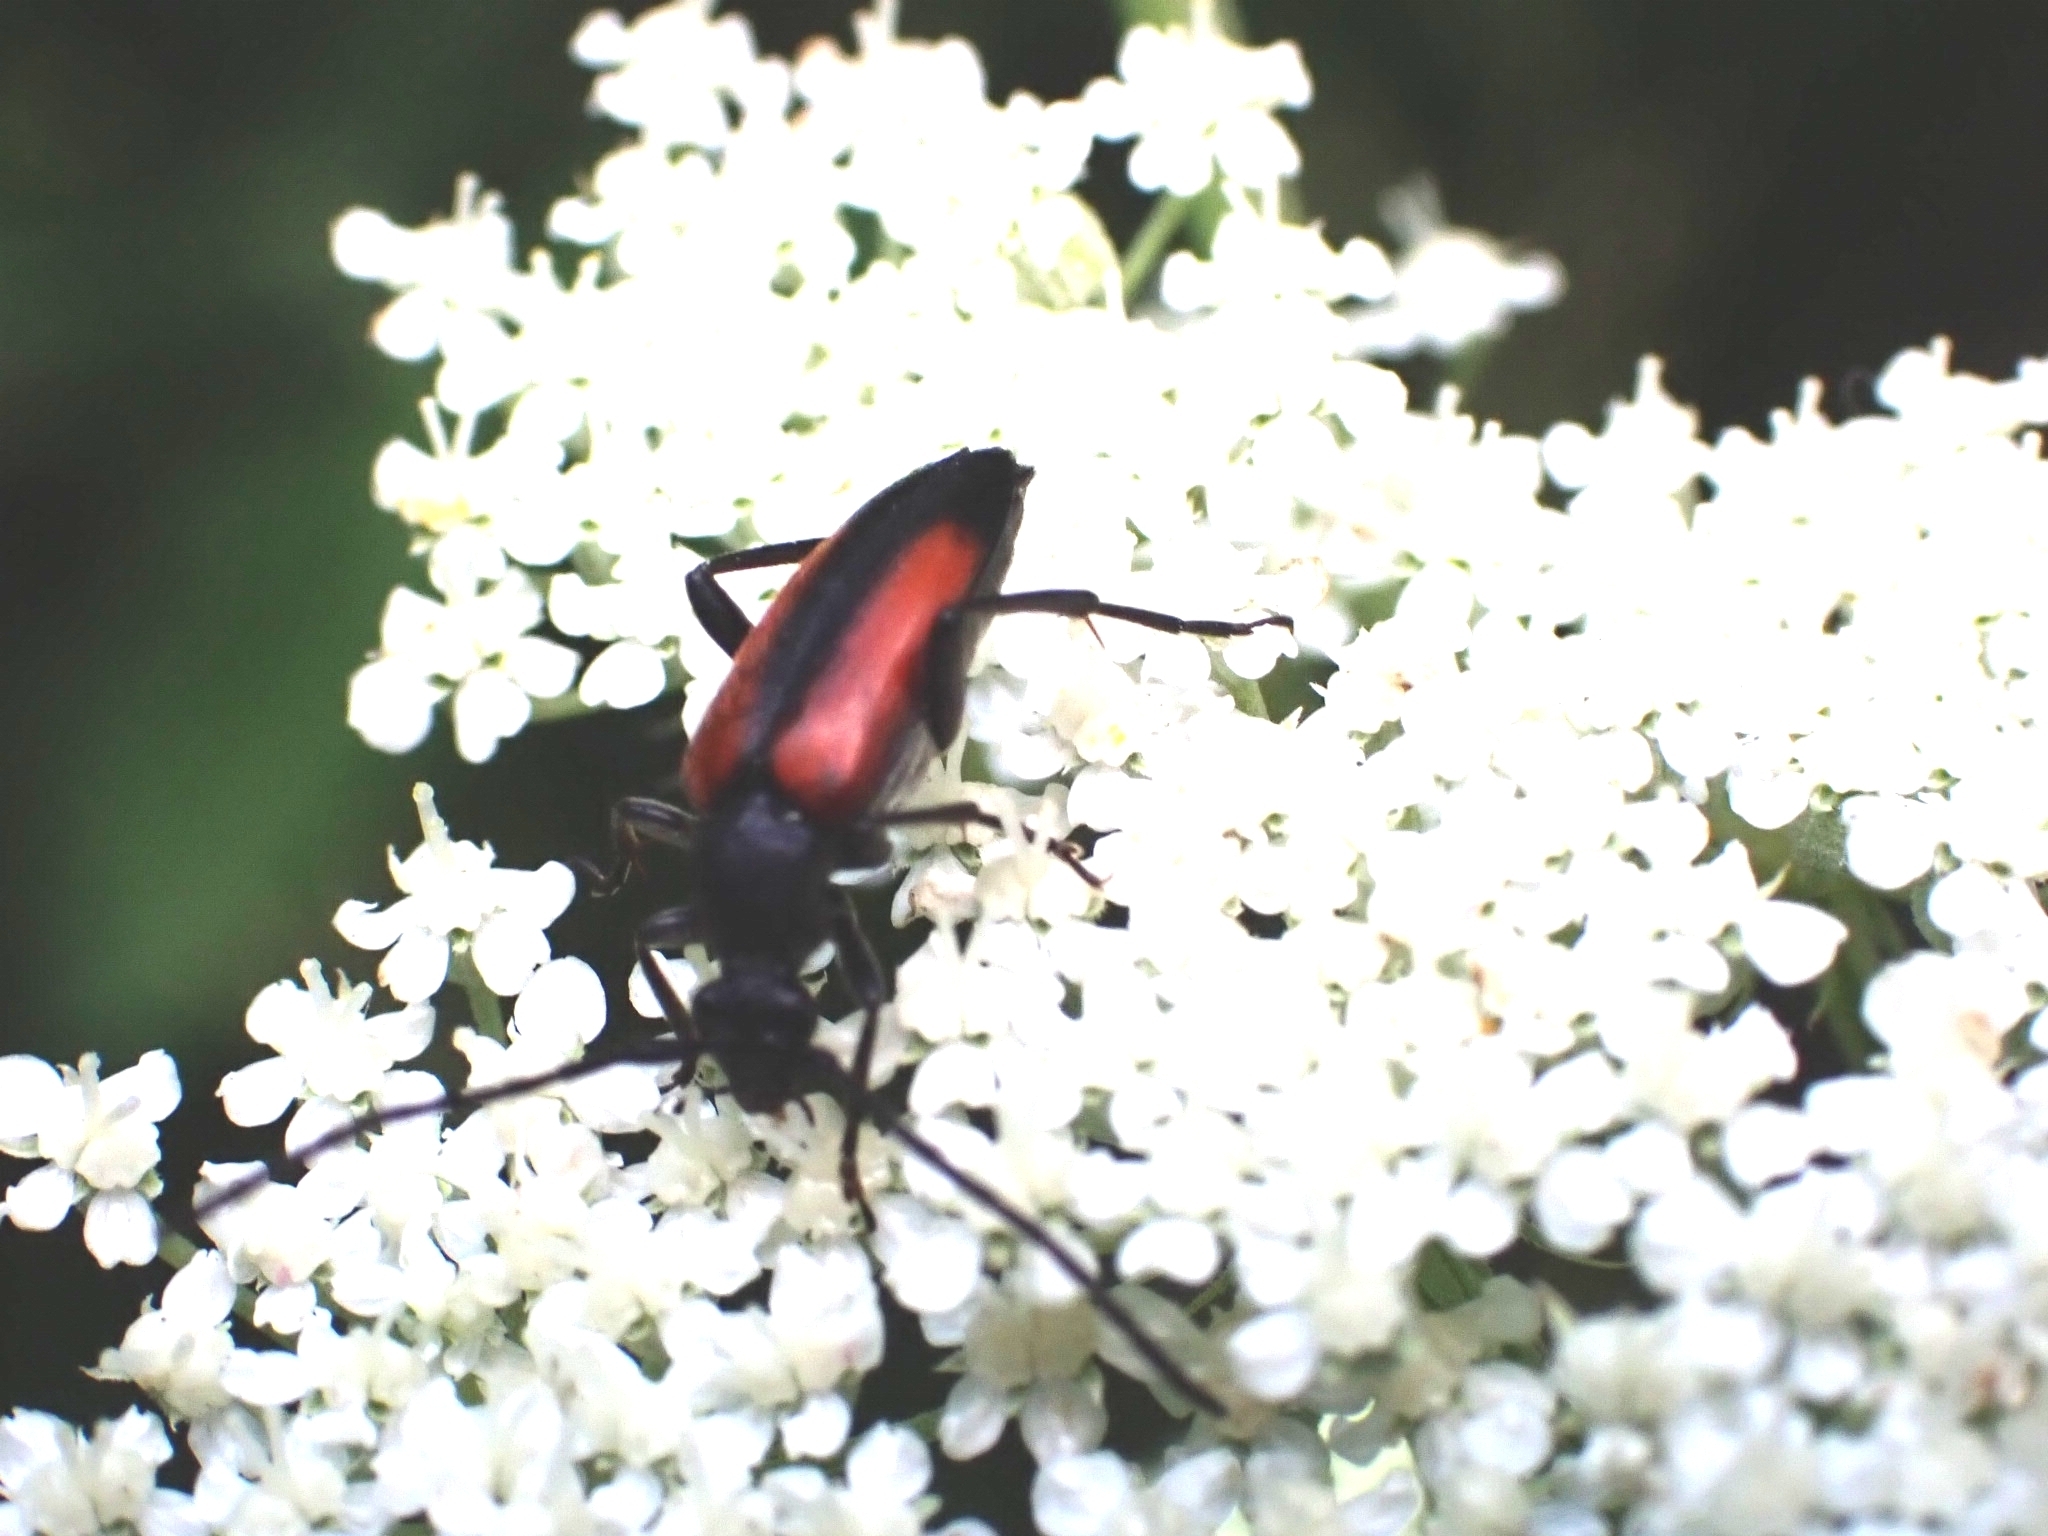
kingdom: Animalia
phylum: Arthropoda
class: Insecta
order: Coleoptera
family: Cerambycidae
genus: Stenurella
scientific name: Stenurella melanura
